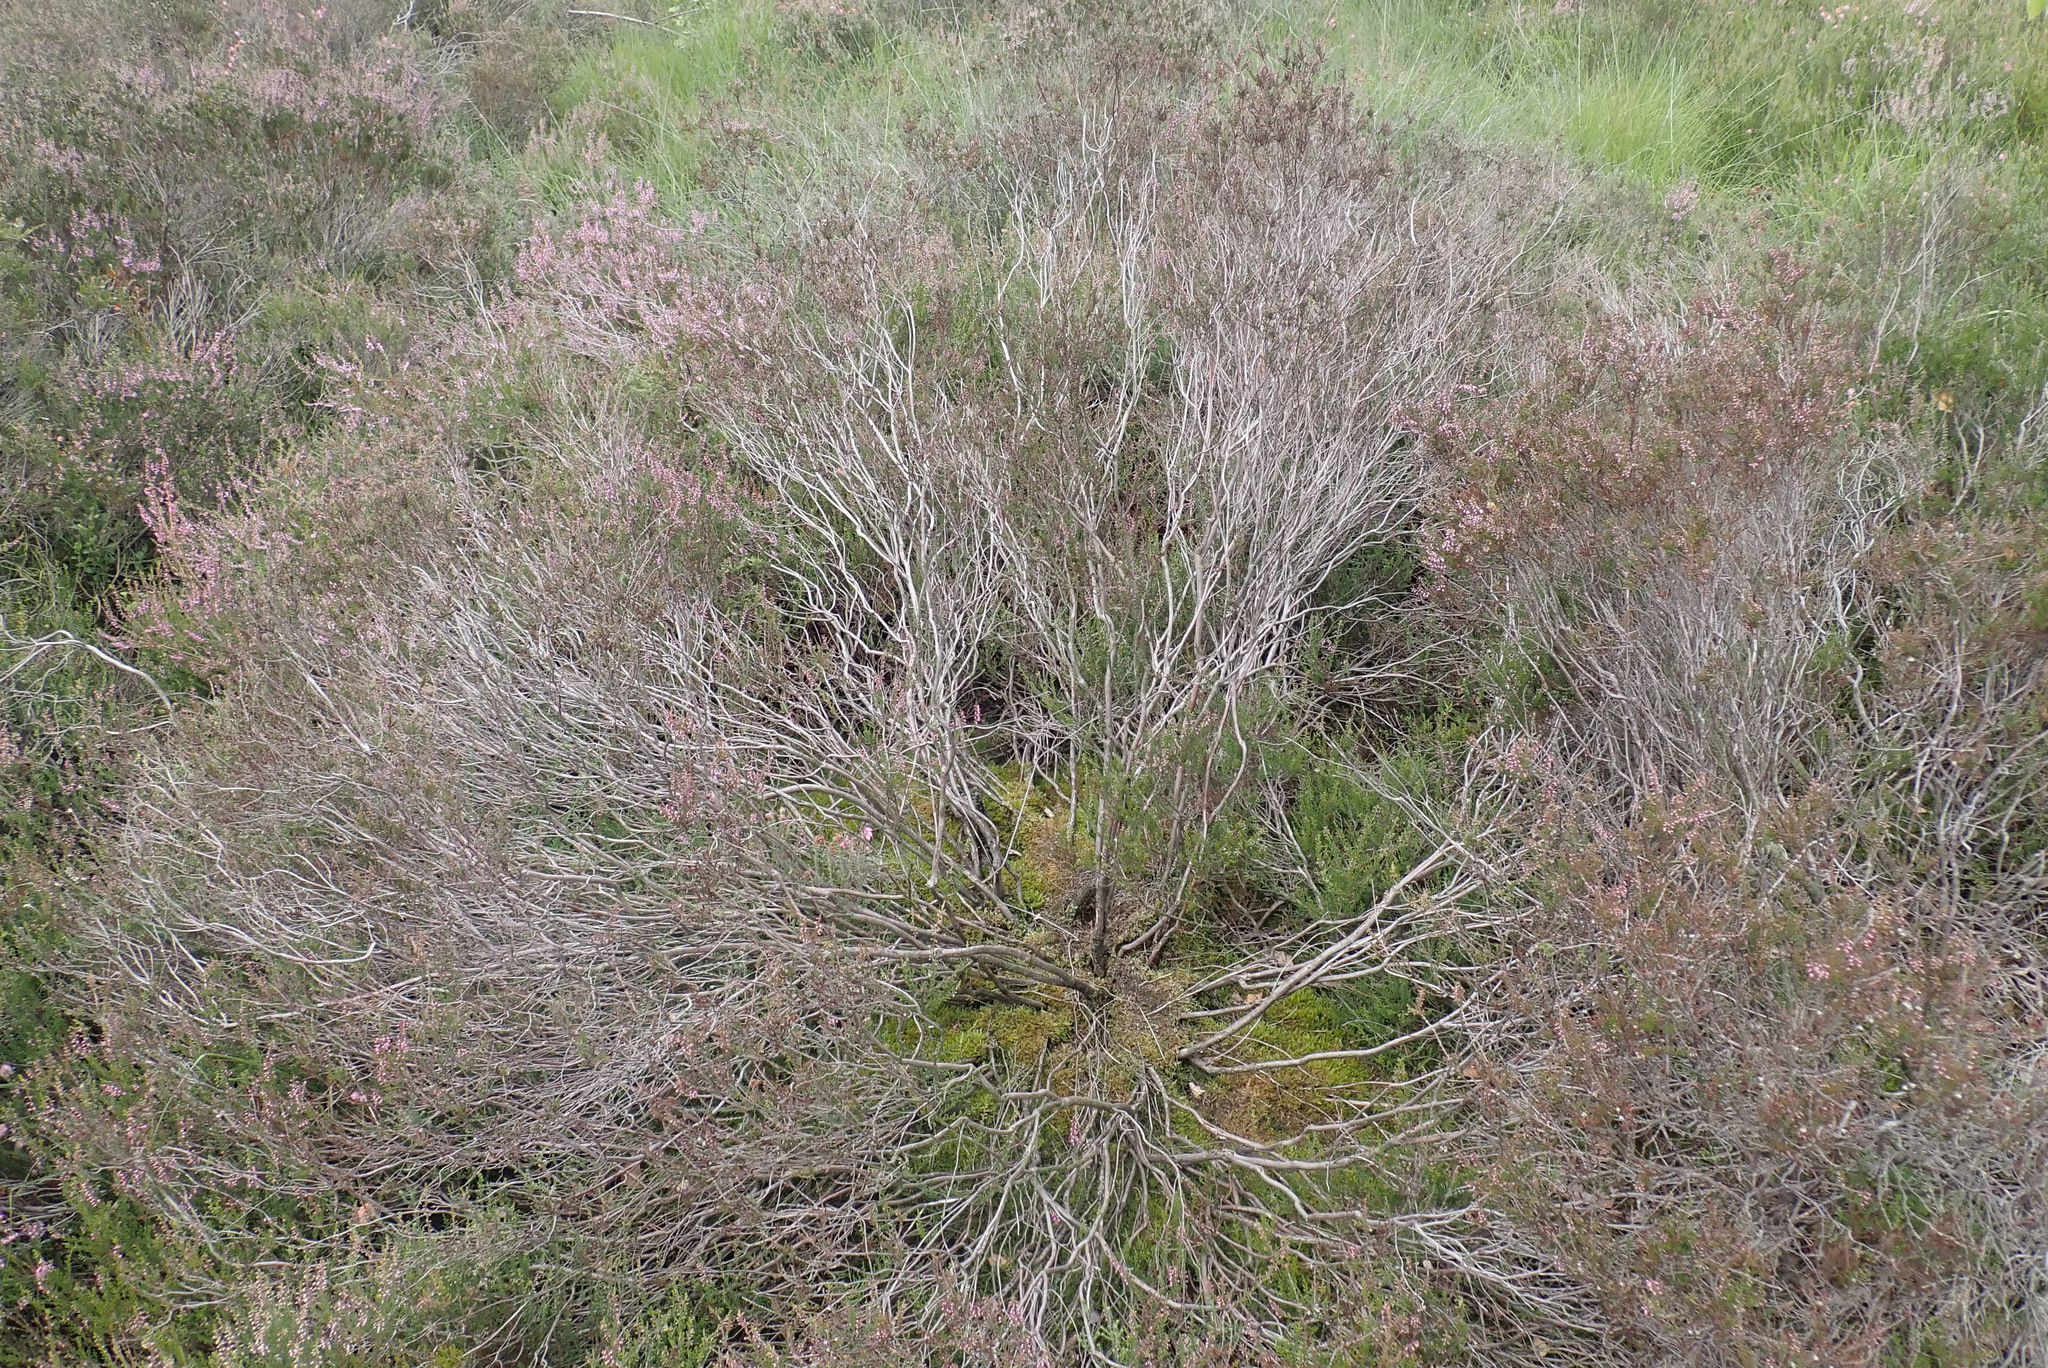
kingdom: Plantae
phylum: Tracheophyta
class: Magnoliopsida
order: Ericales
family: Ericaceae
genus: Calluna
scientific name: Calluna vulgaris
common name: Heather
